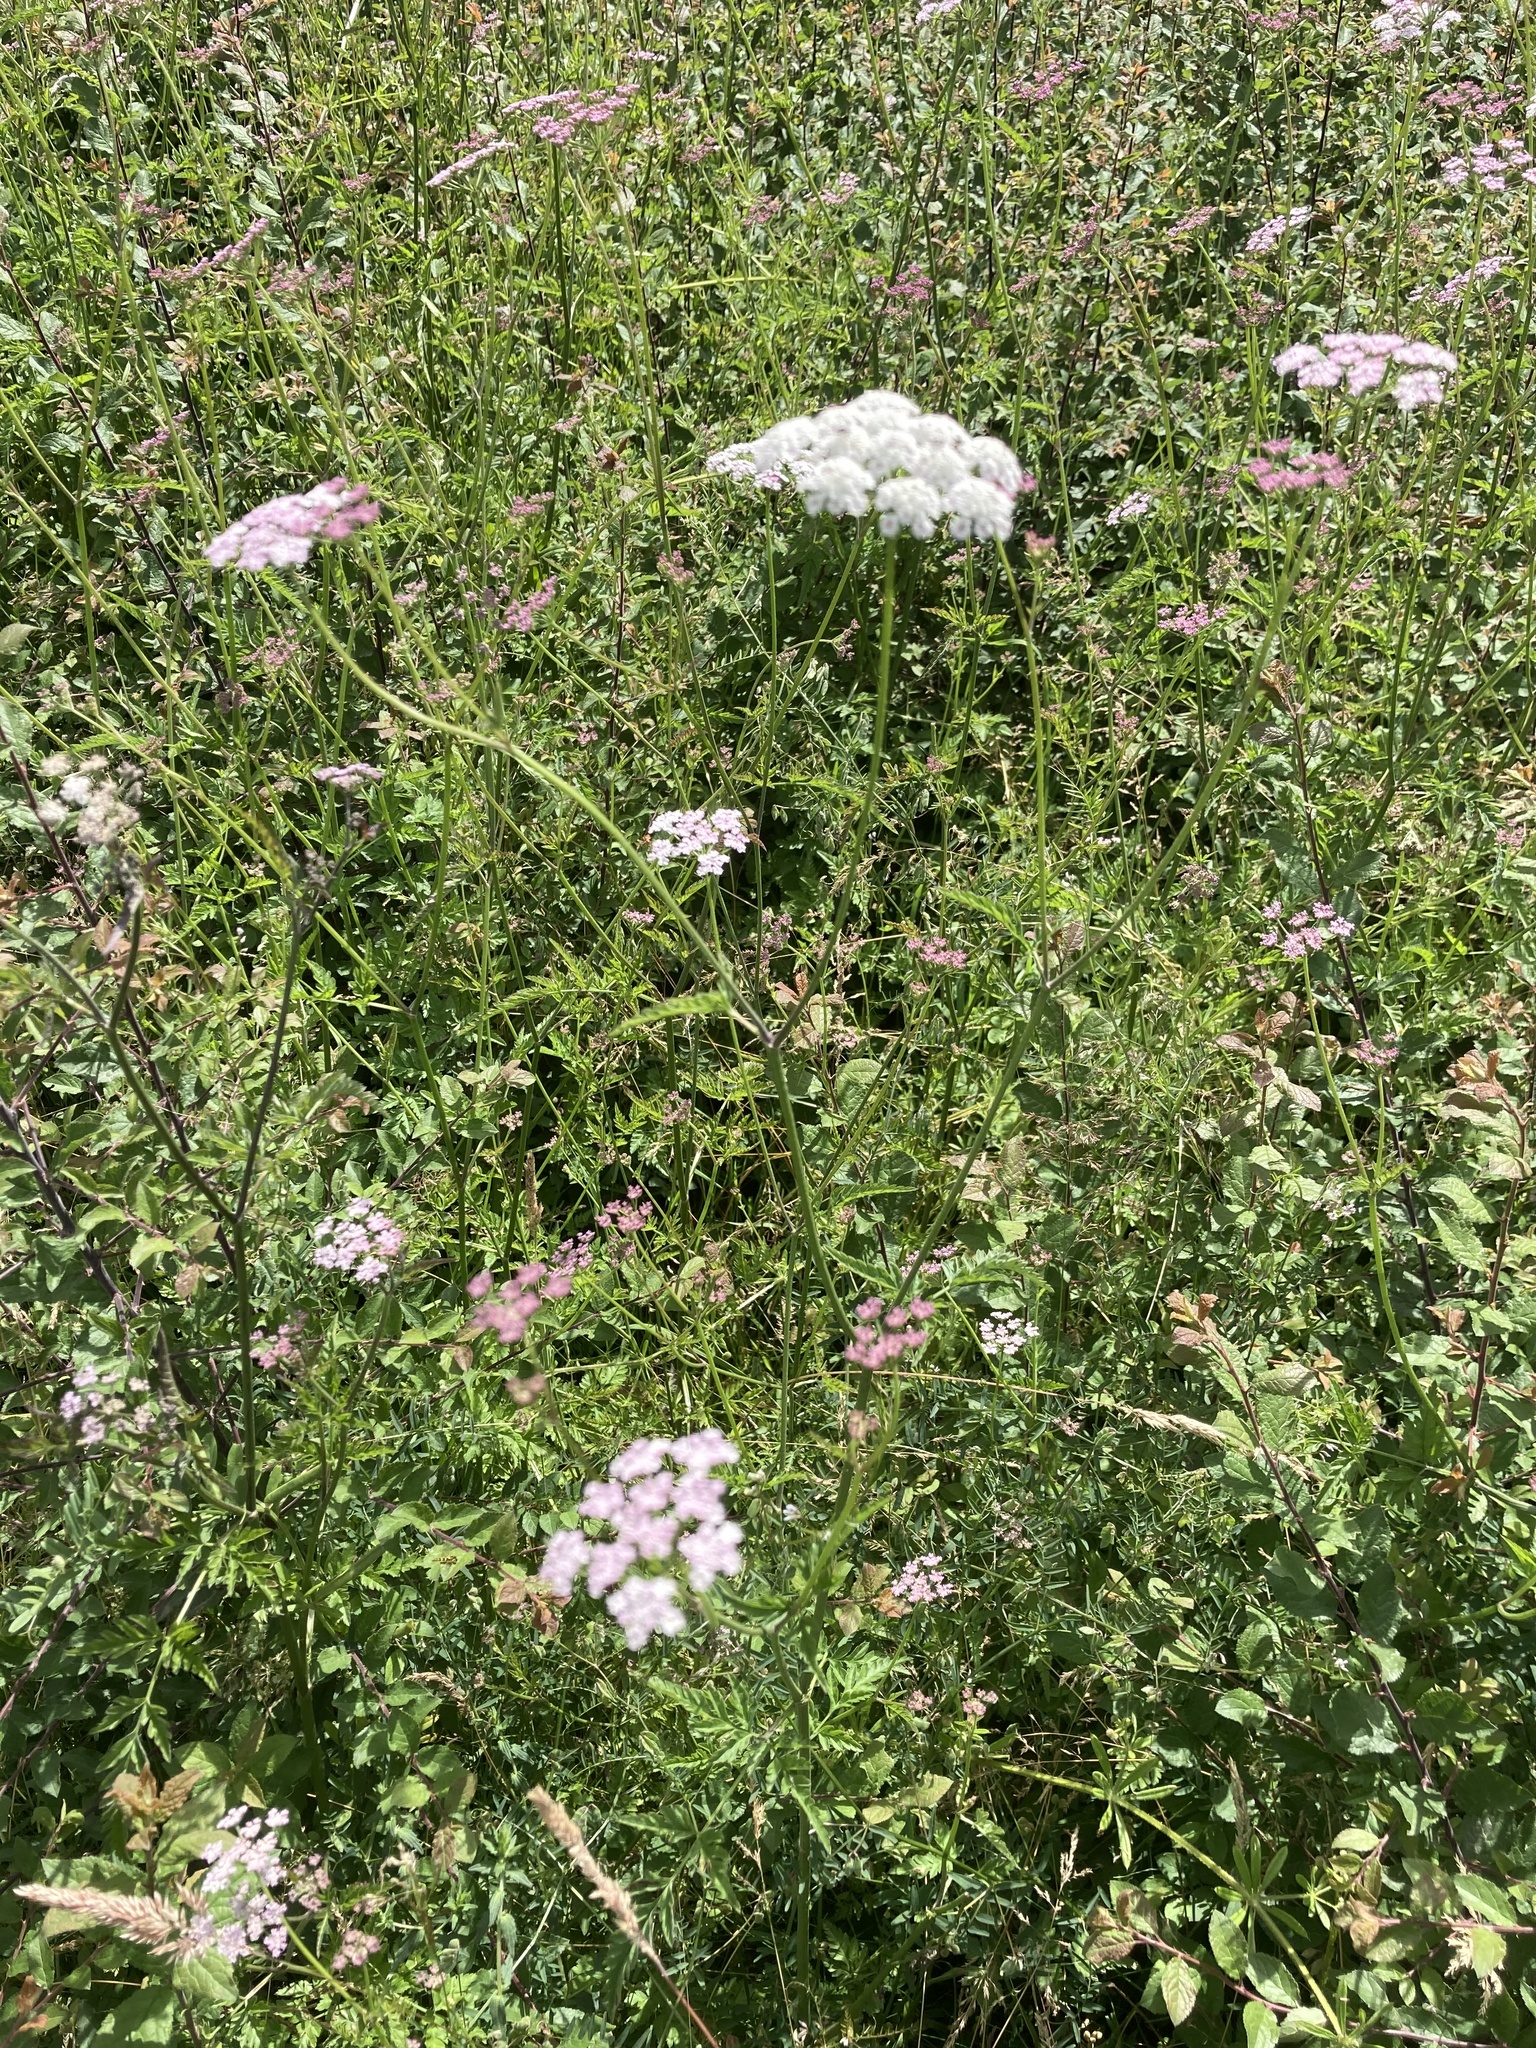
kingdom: Plantae
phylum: Tracheophyta
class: Magnoliopsida
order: Apiales
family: Apiaceae
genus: Torilis
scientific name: Torilis japonica
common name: Upright hedge-parsley
